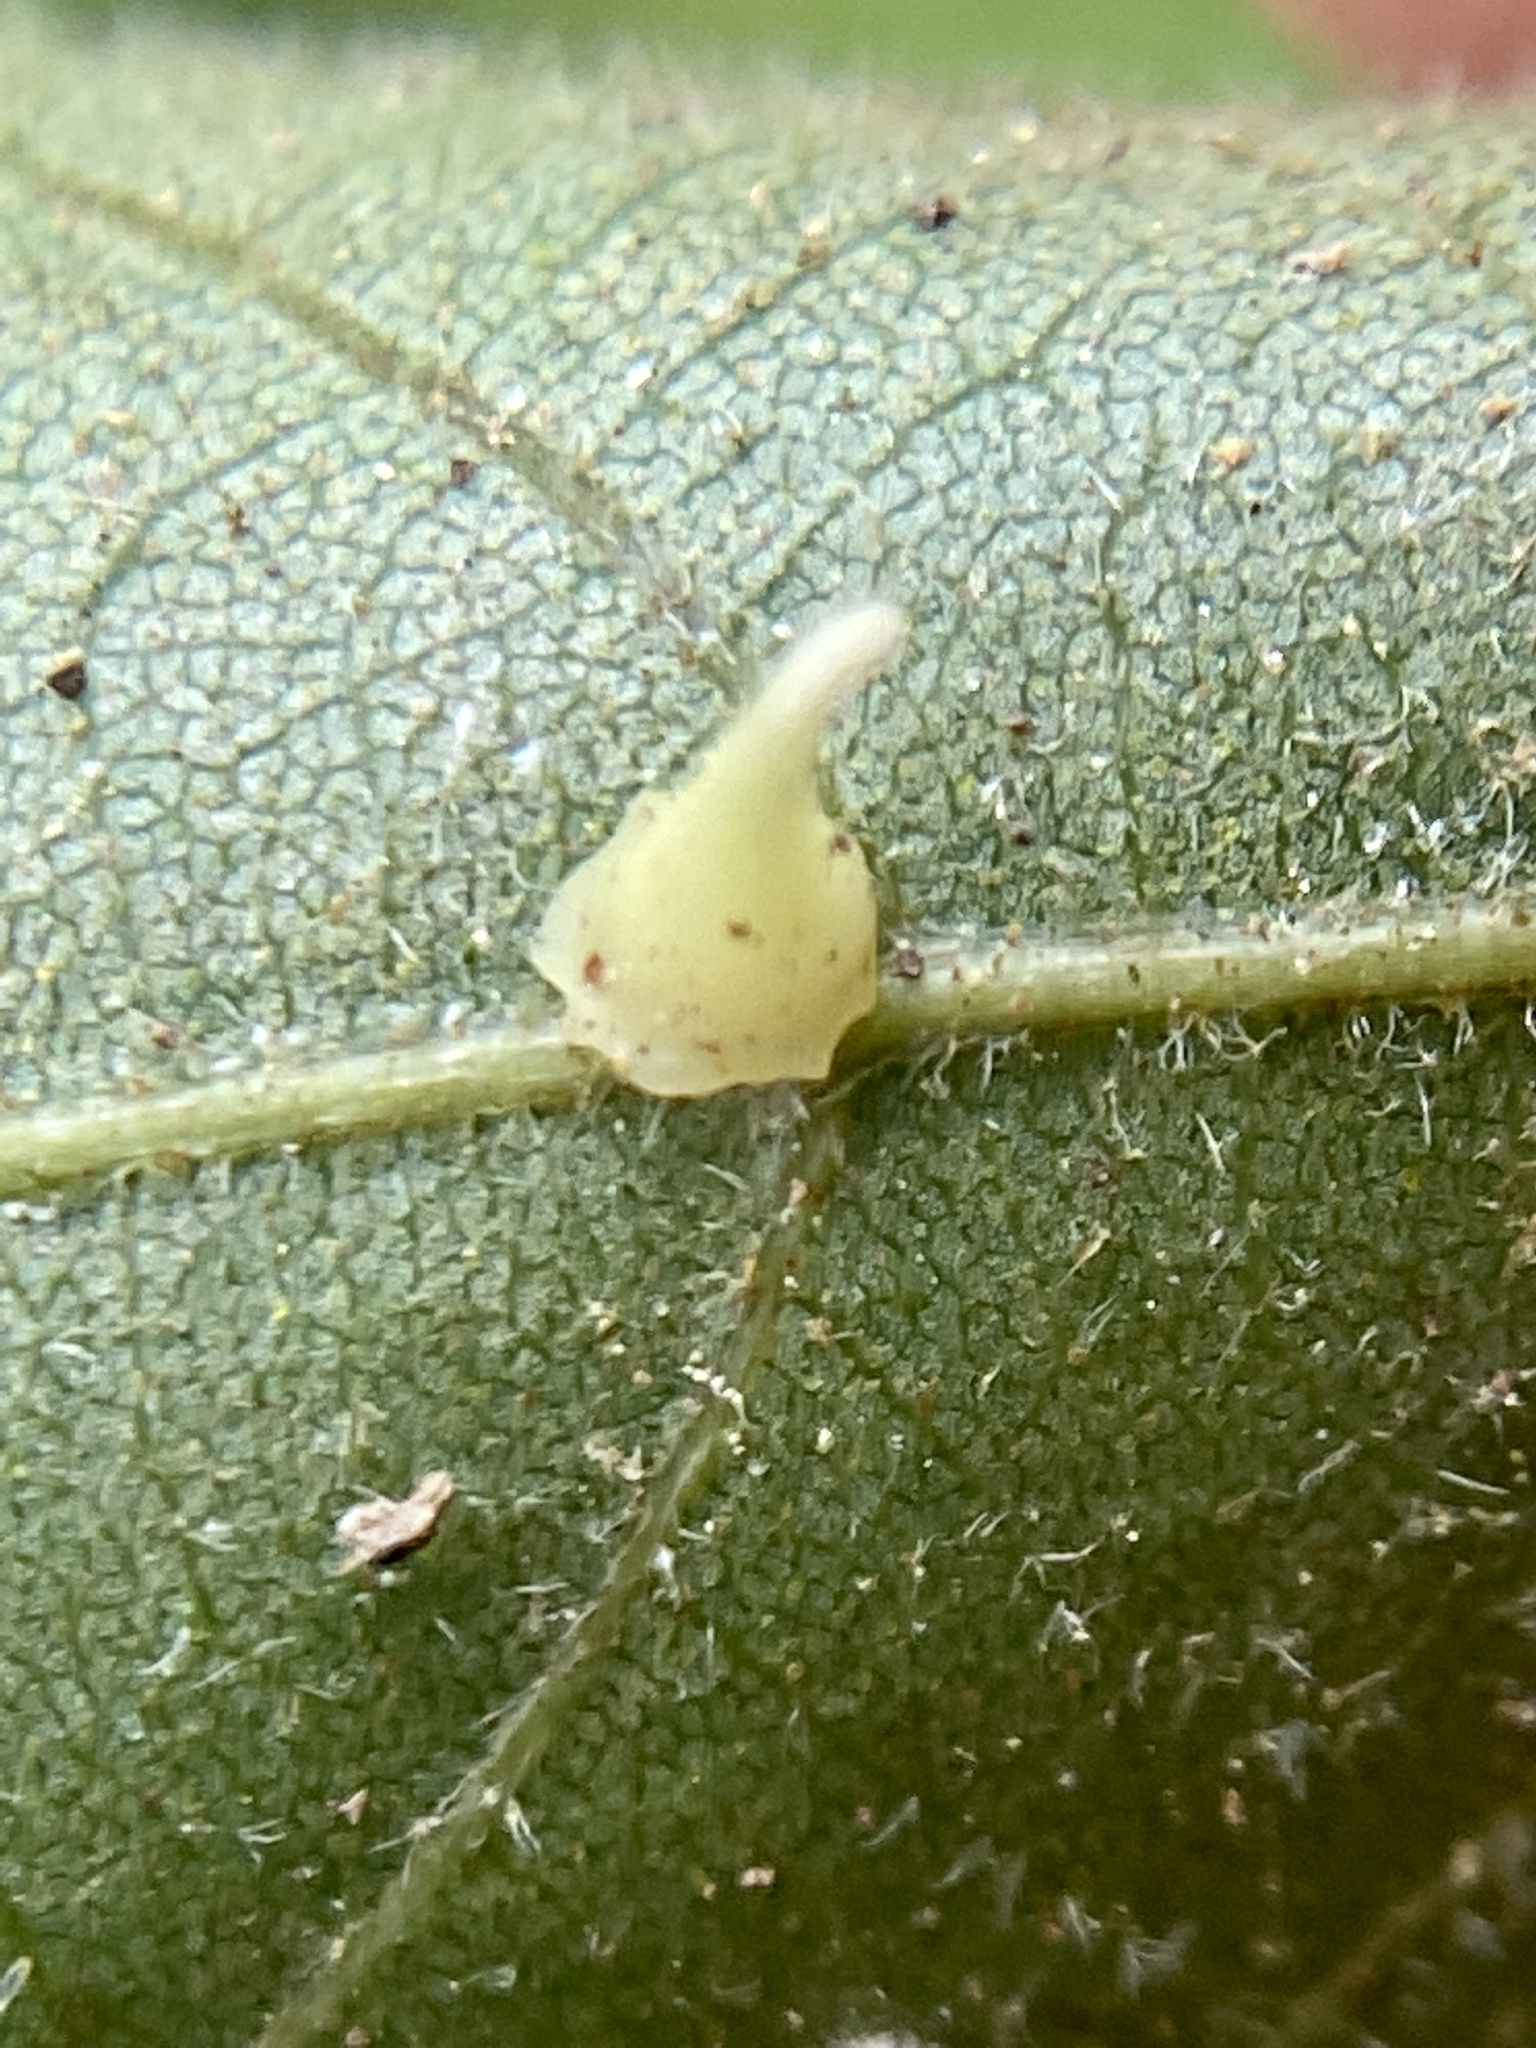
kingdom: Animalia
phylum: Arthropoda
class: Insecta
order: Diptera
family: Cecidomyiidae
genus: Caryomyia
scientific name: Caryomyia sanguinolenta
